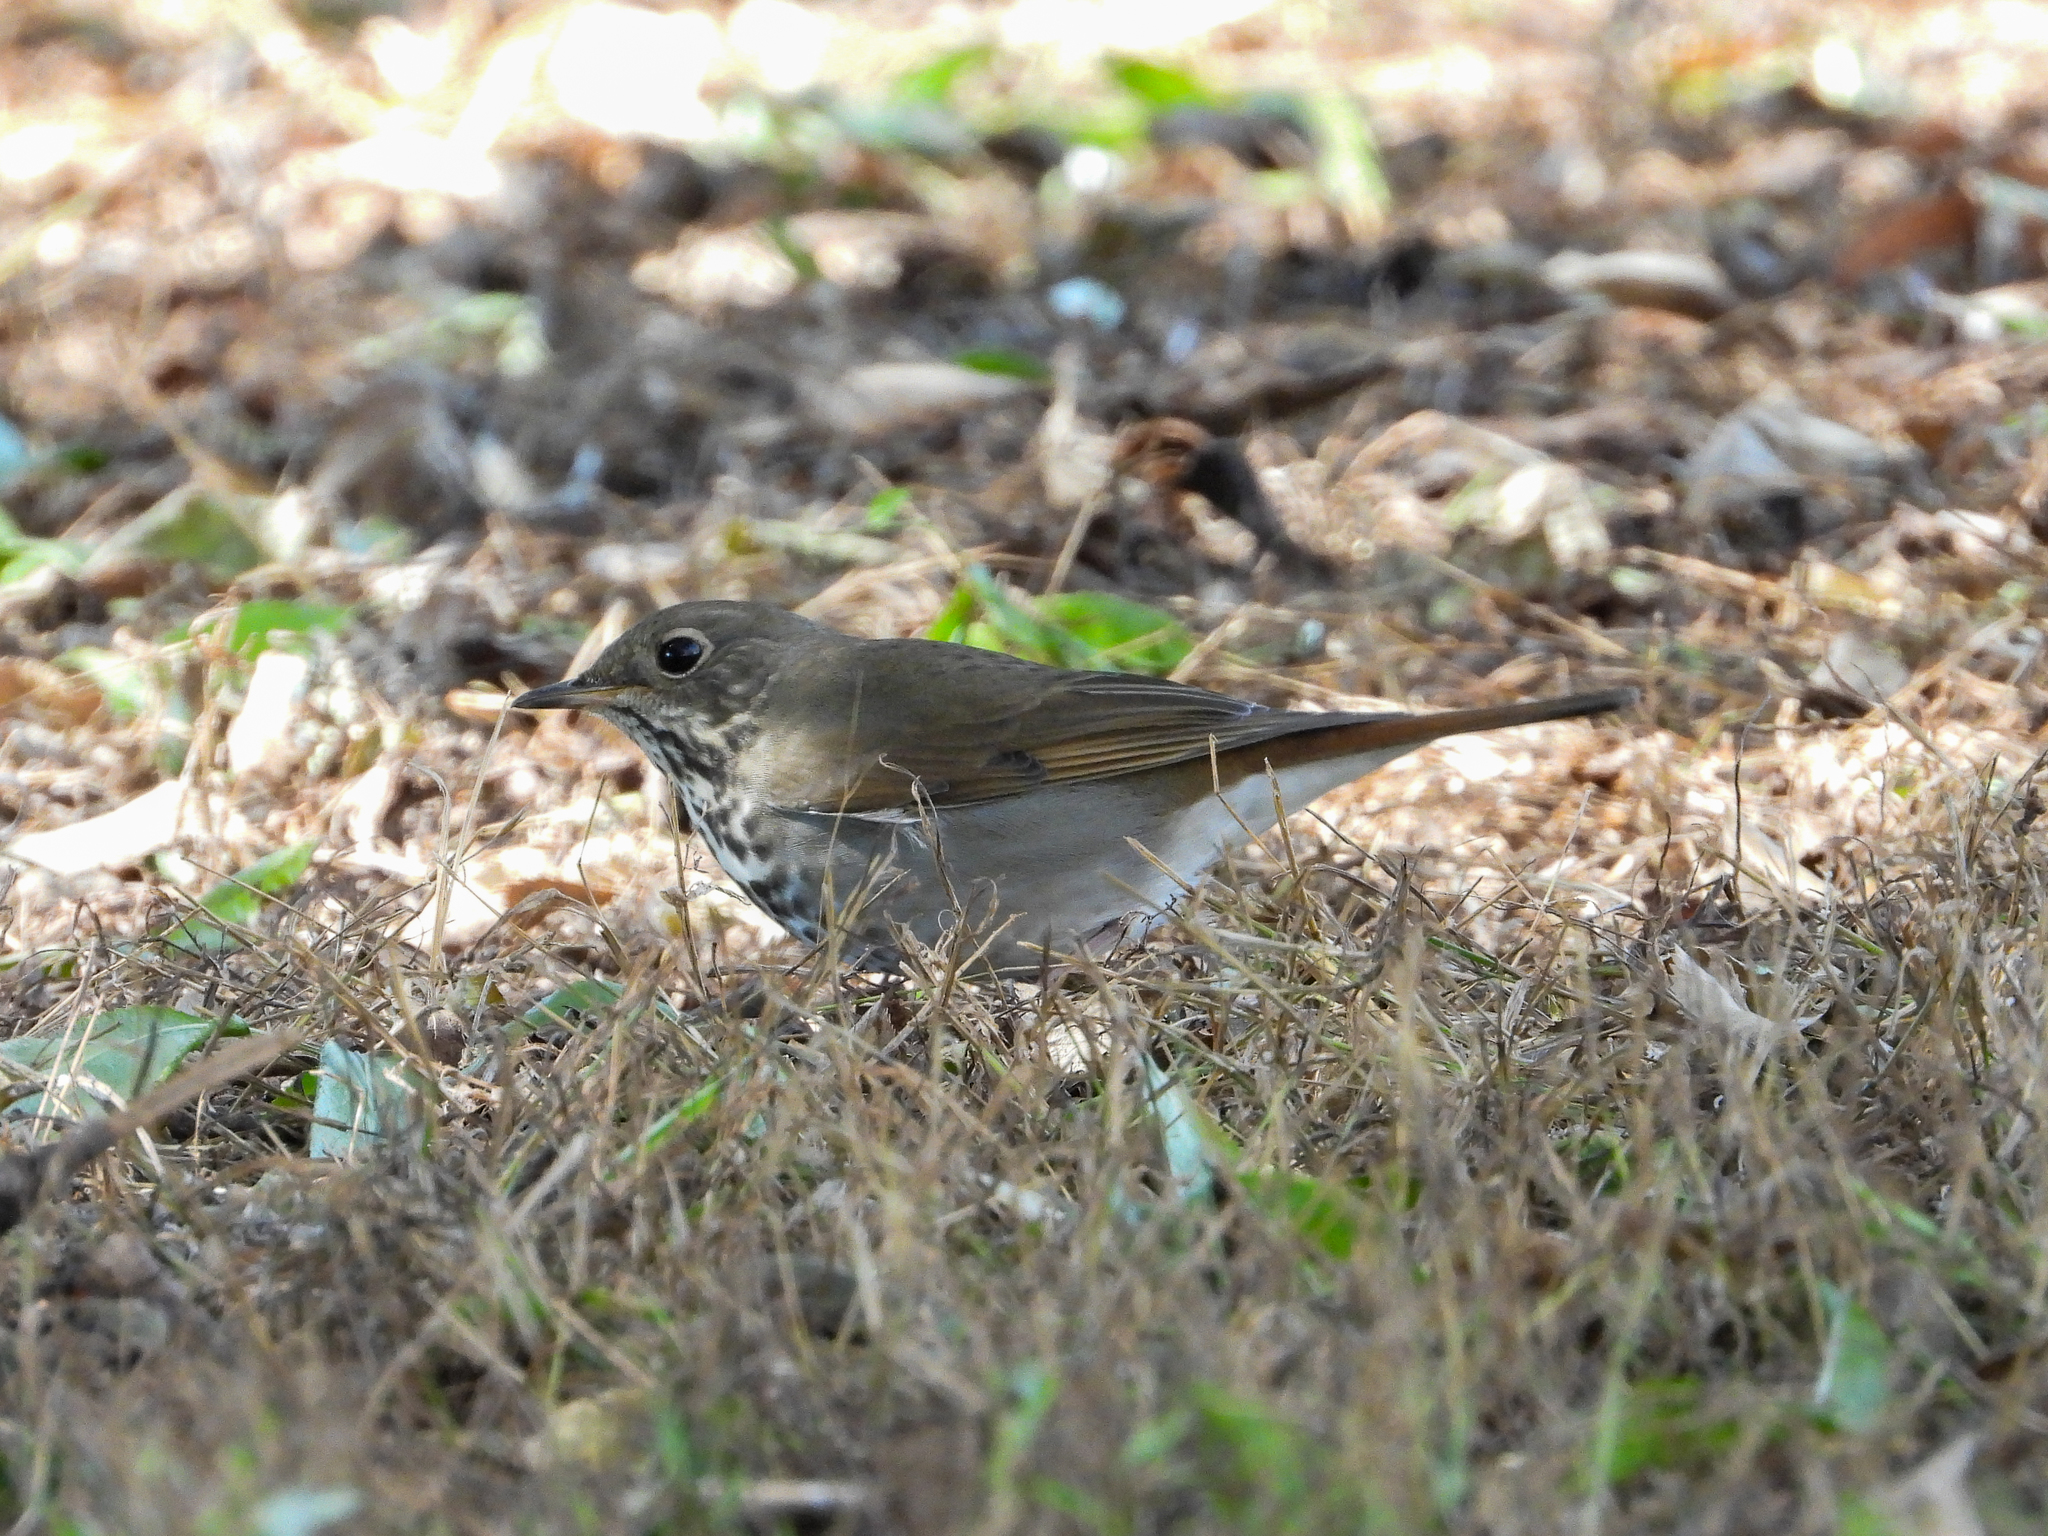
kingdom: Animalia
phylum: Chordata
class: Aves
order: Passeriformes
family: Turdidae
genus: Catharus
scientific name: Catharus guttatus
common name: Hermit thrush
